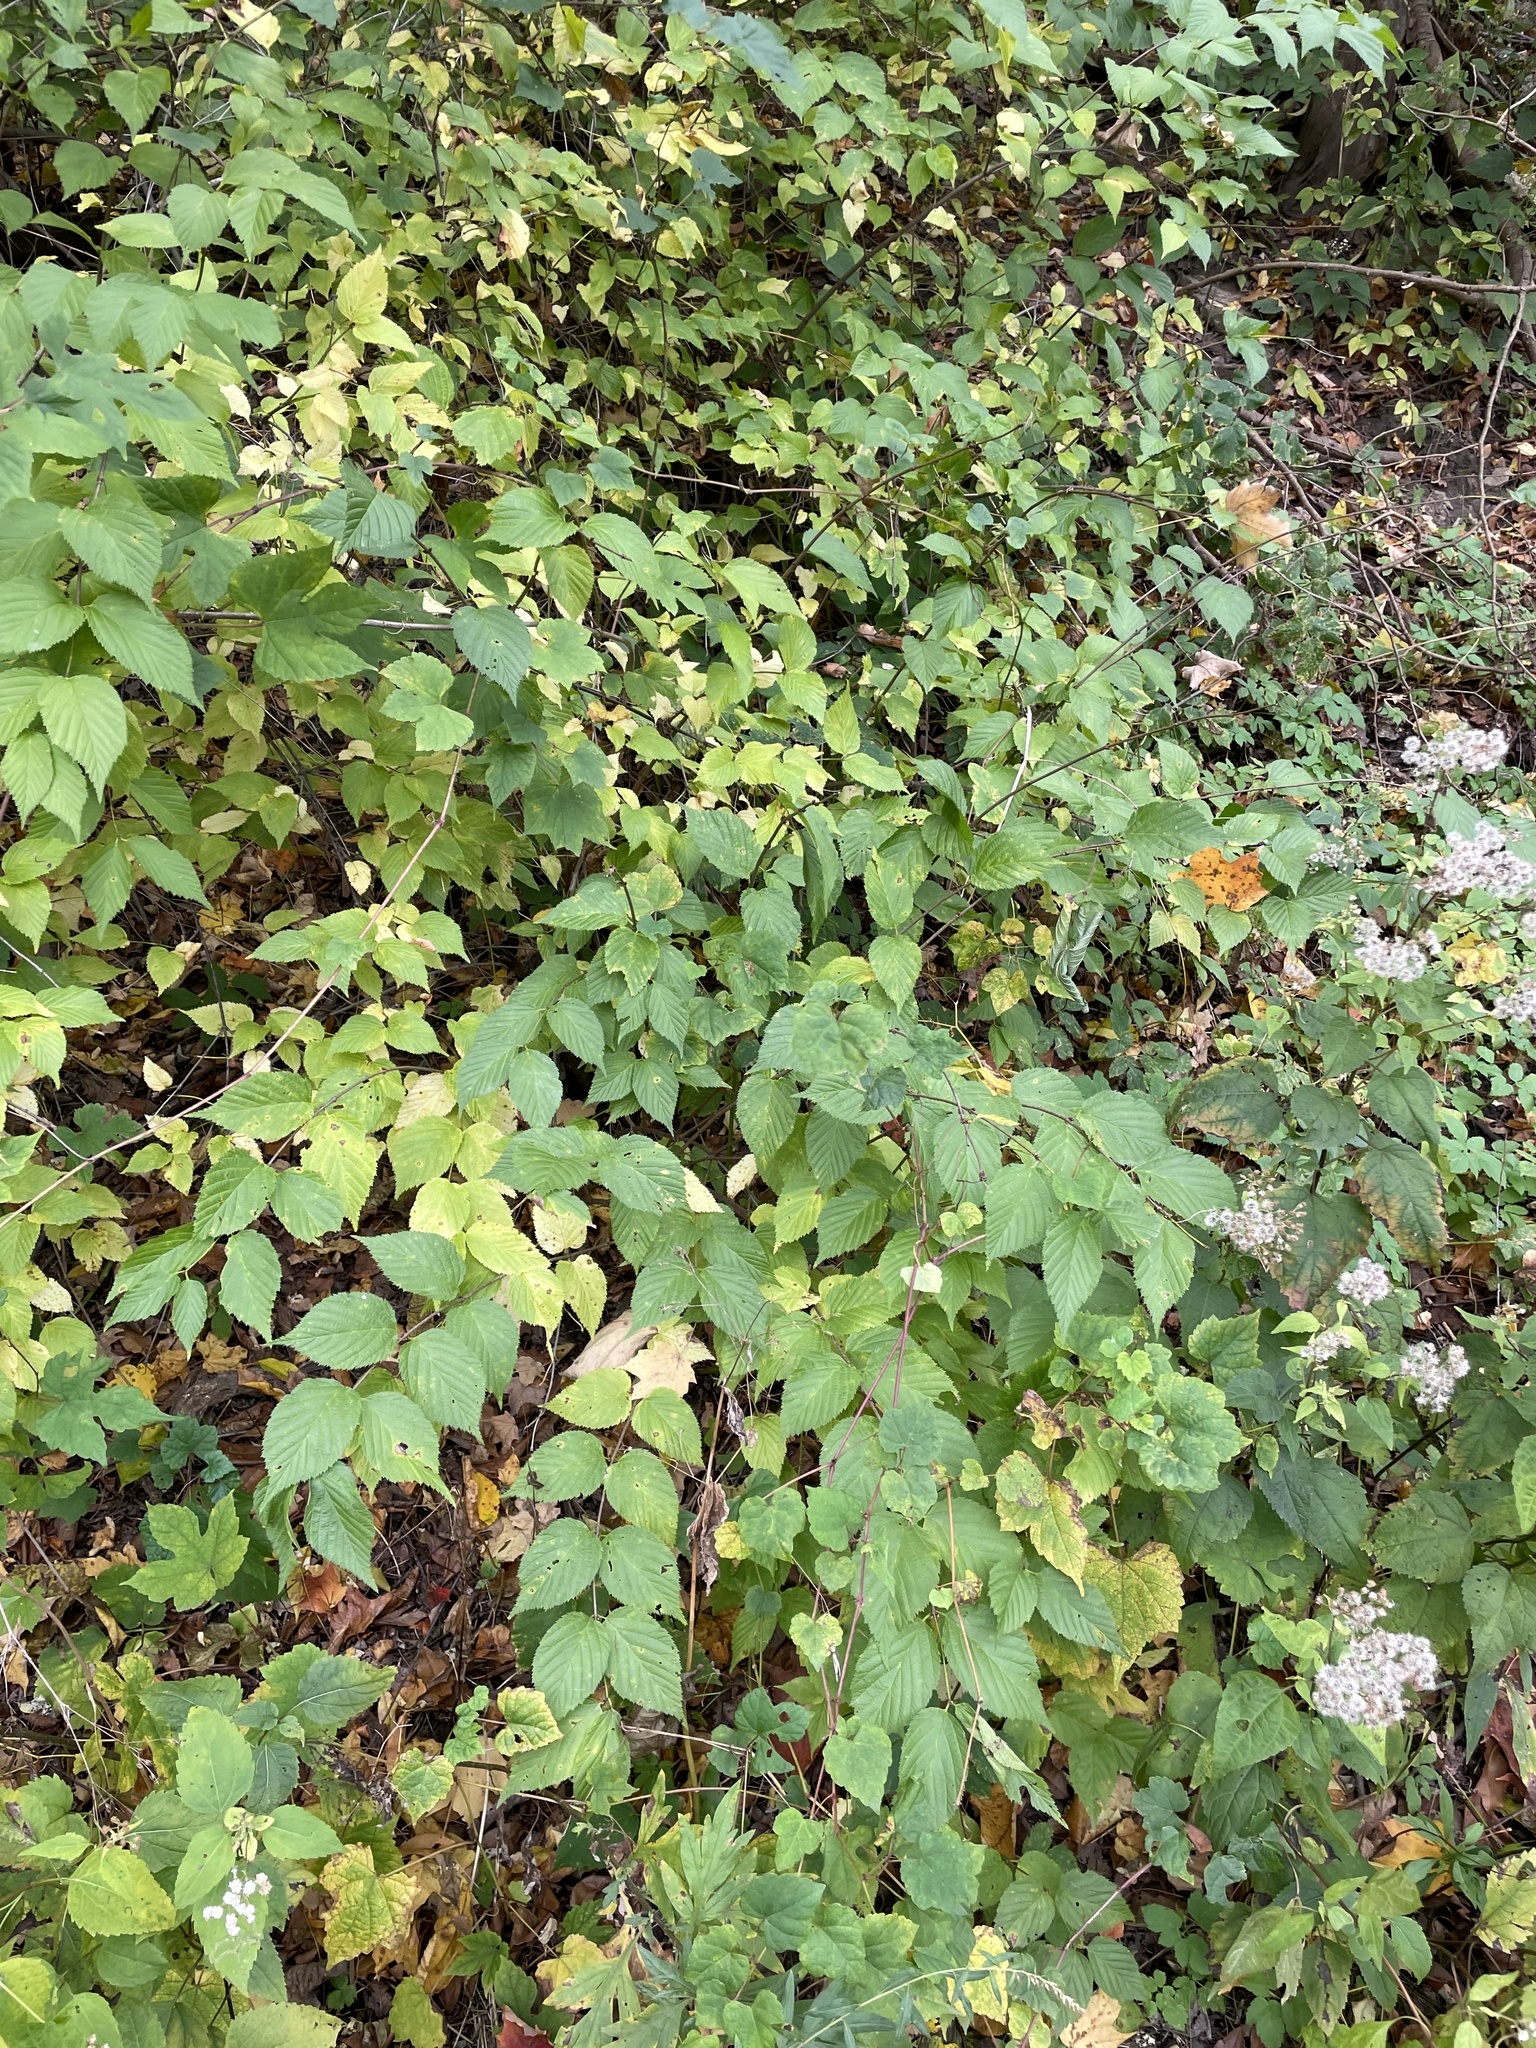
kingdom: Plantae
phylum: Tracheophyta
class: Magnoliopsida
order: Rosales
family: Rosaceae
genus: Rhodotypos
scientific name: Rhodotypos scandens
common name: Jetbead
